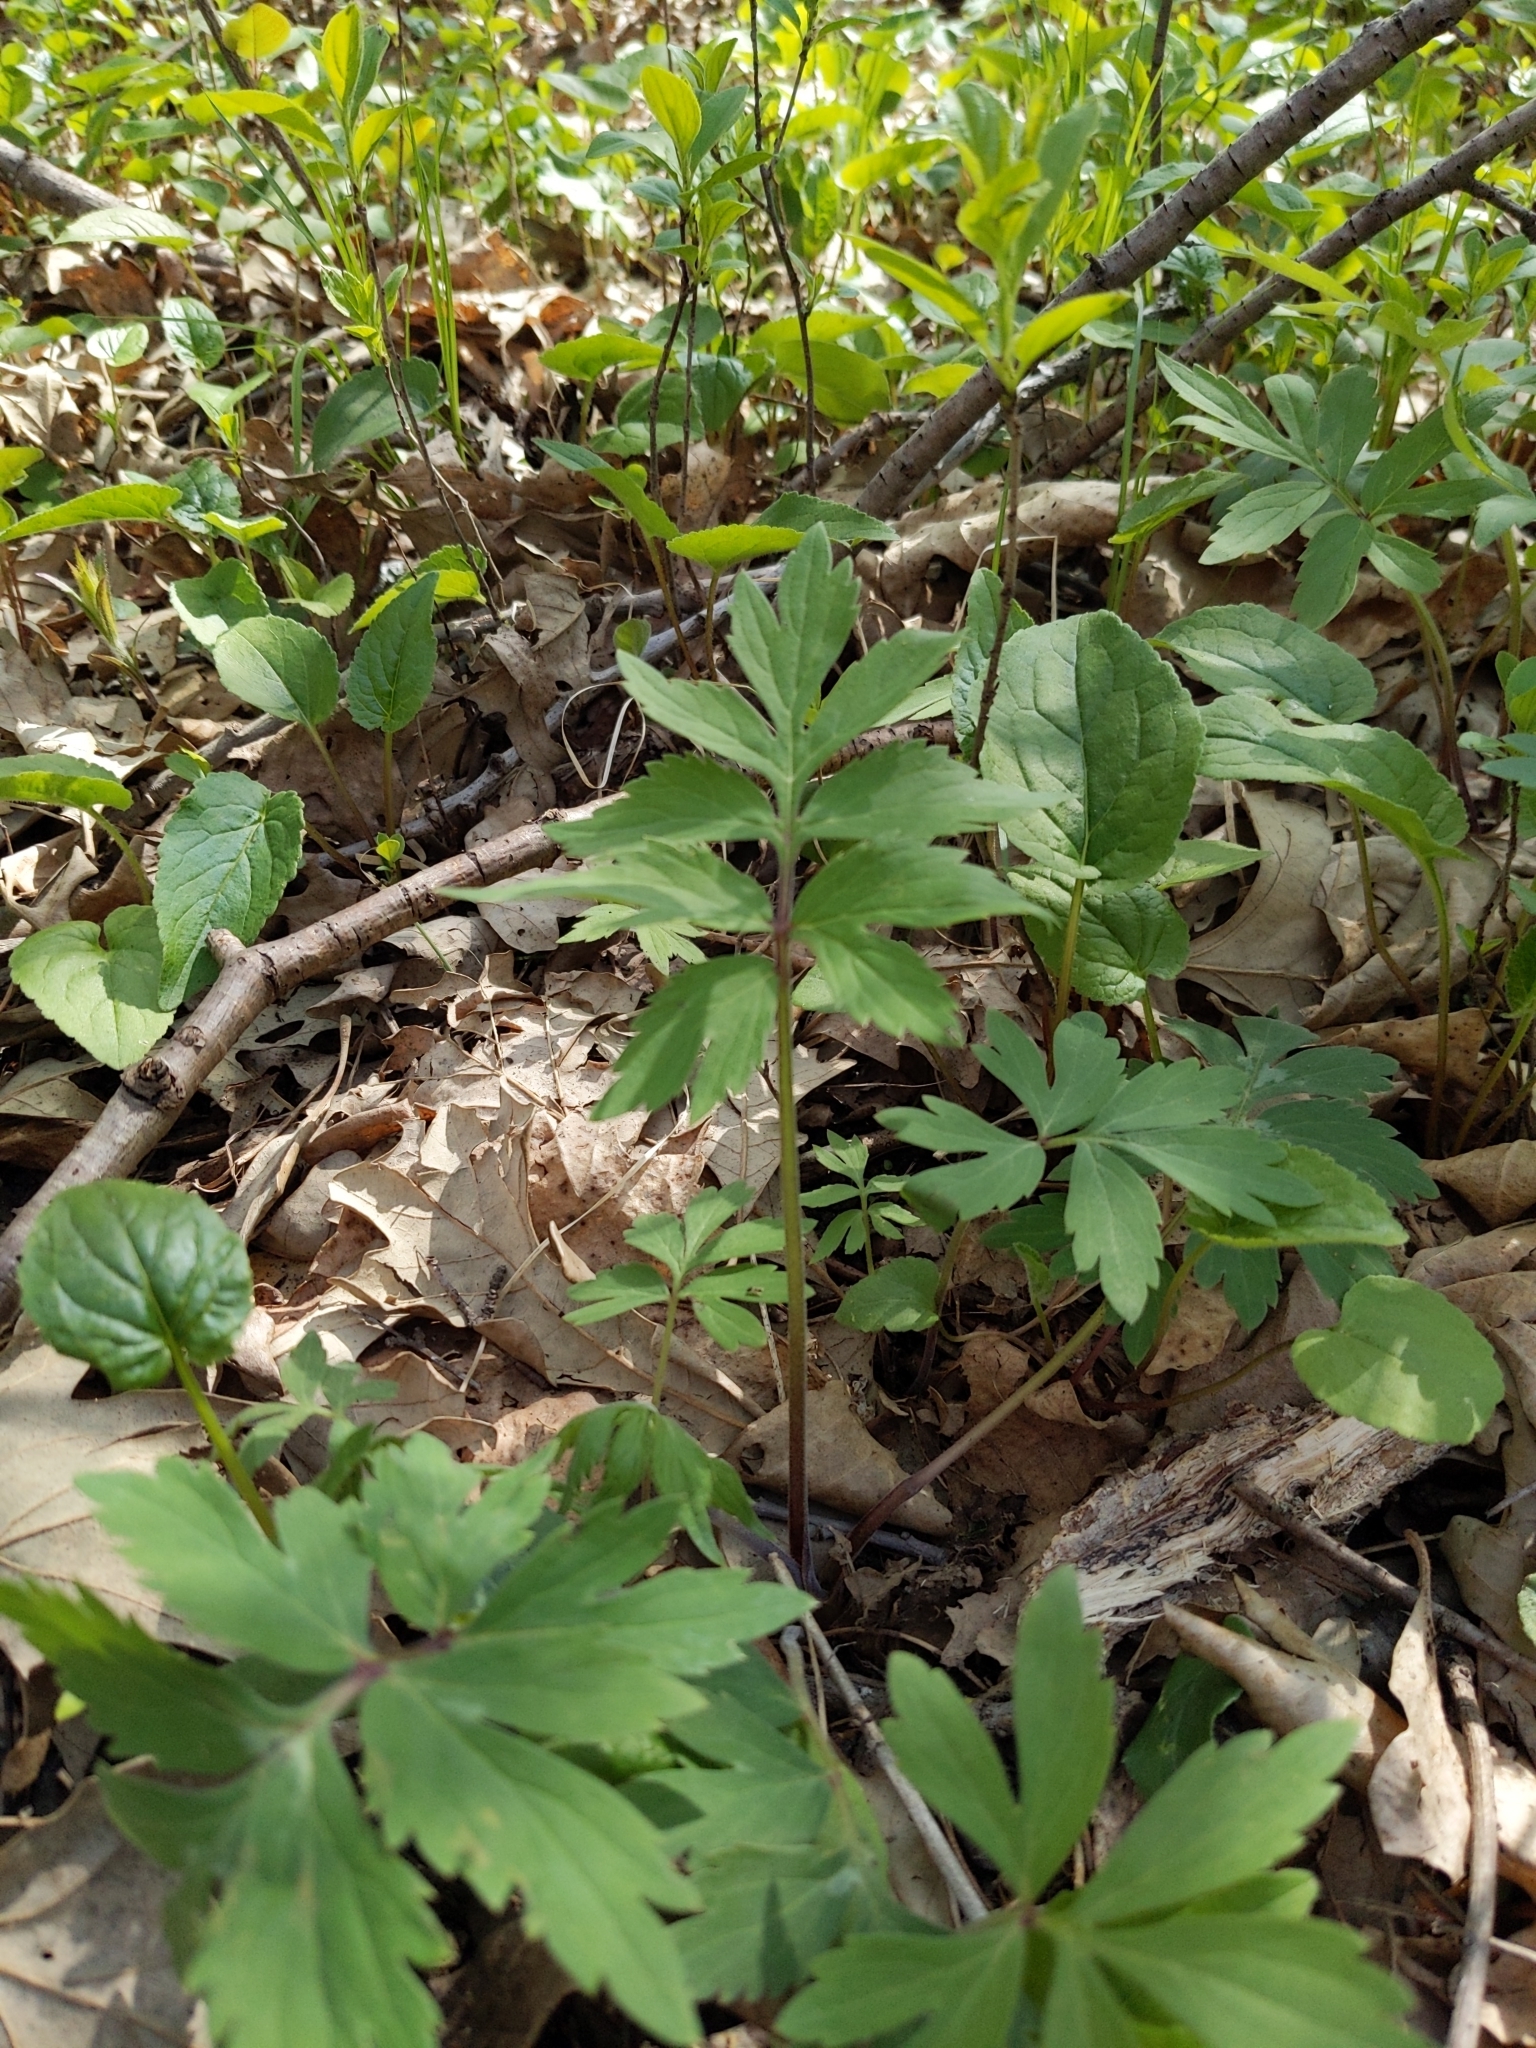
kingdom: Plantae
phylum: Tracheophyta
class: Magnoliopsida
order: Boraginales
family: Hydrophyllaceae
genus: Hydrophyllum
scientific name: Hydrophyllum virginianum
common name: Virginia waterleaf
